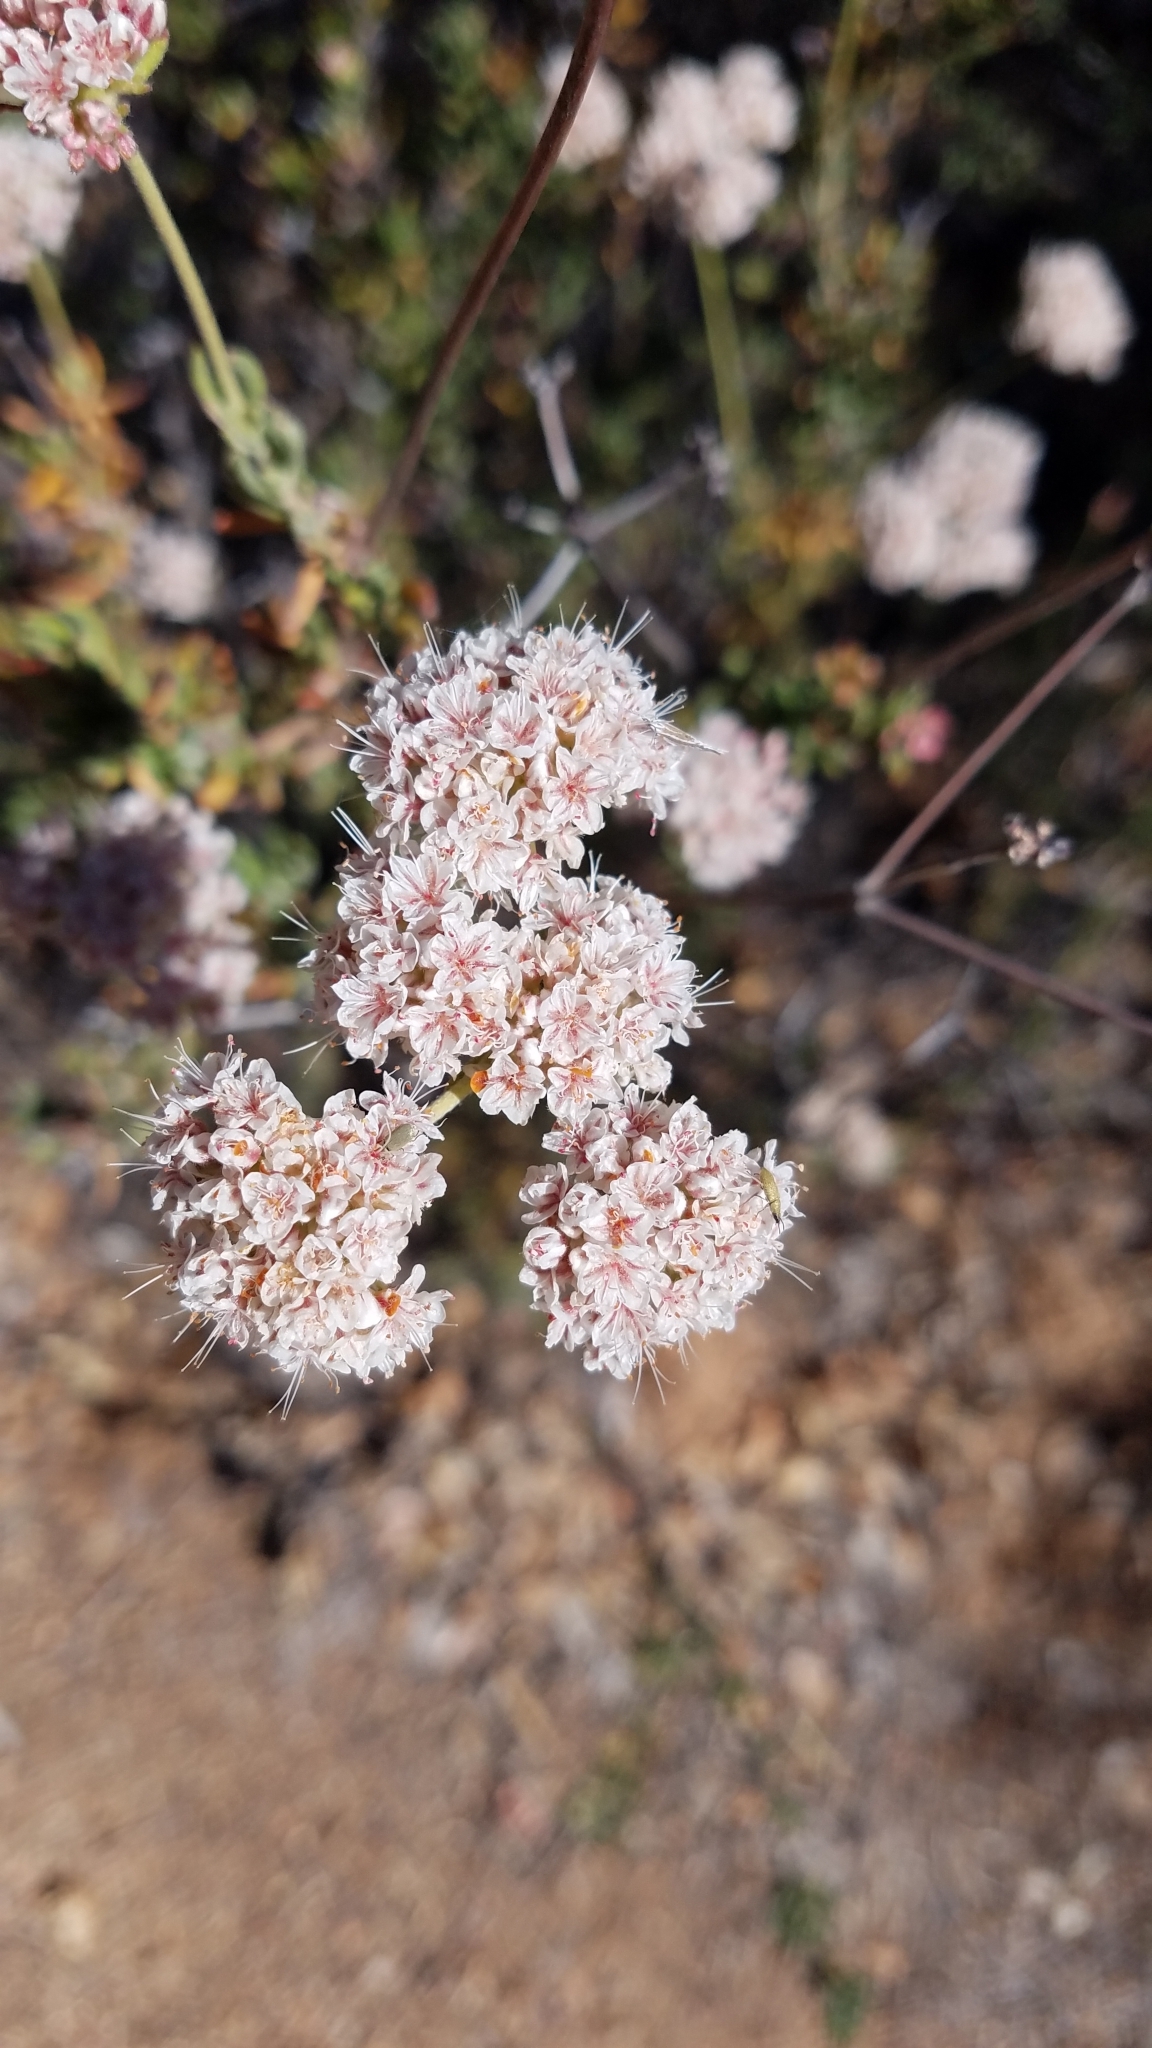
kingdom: Plantae
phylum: Tracheophyta
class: Magnoliopsida
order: Caryophyllales
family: Polygonaceae
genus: Eriogonum
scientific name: Eriogonum fasciculatum
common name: California wild buckwheat
